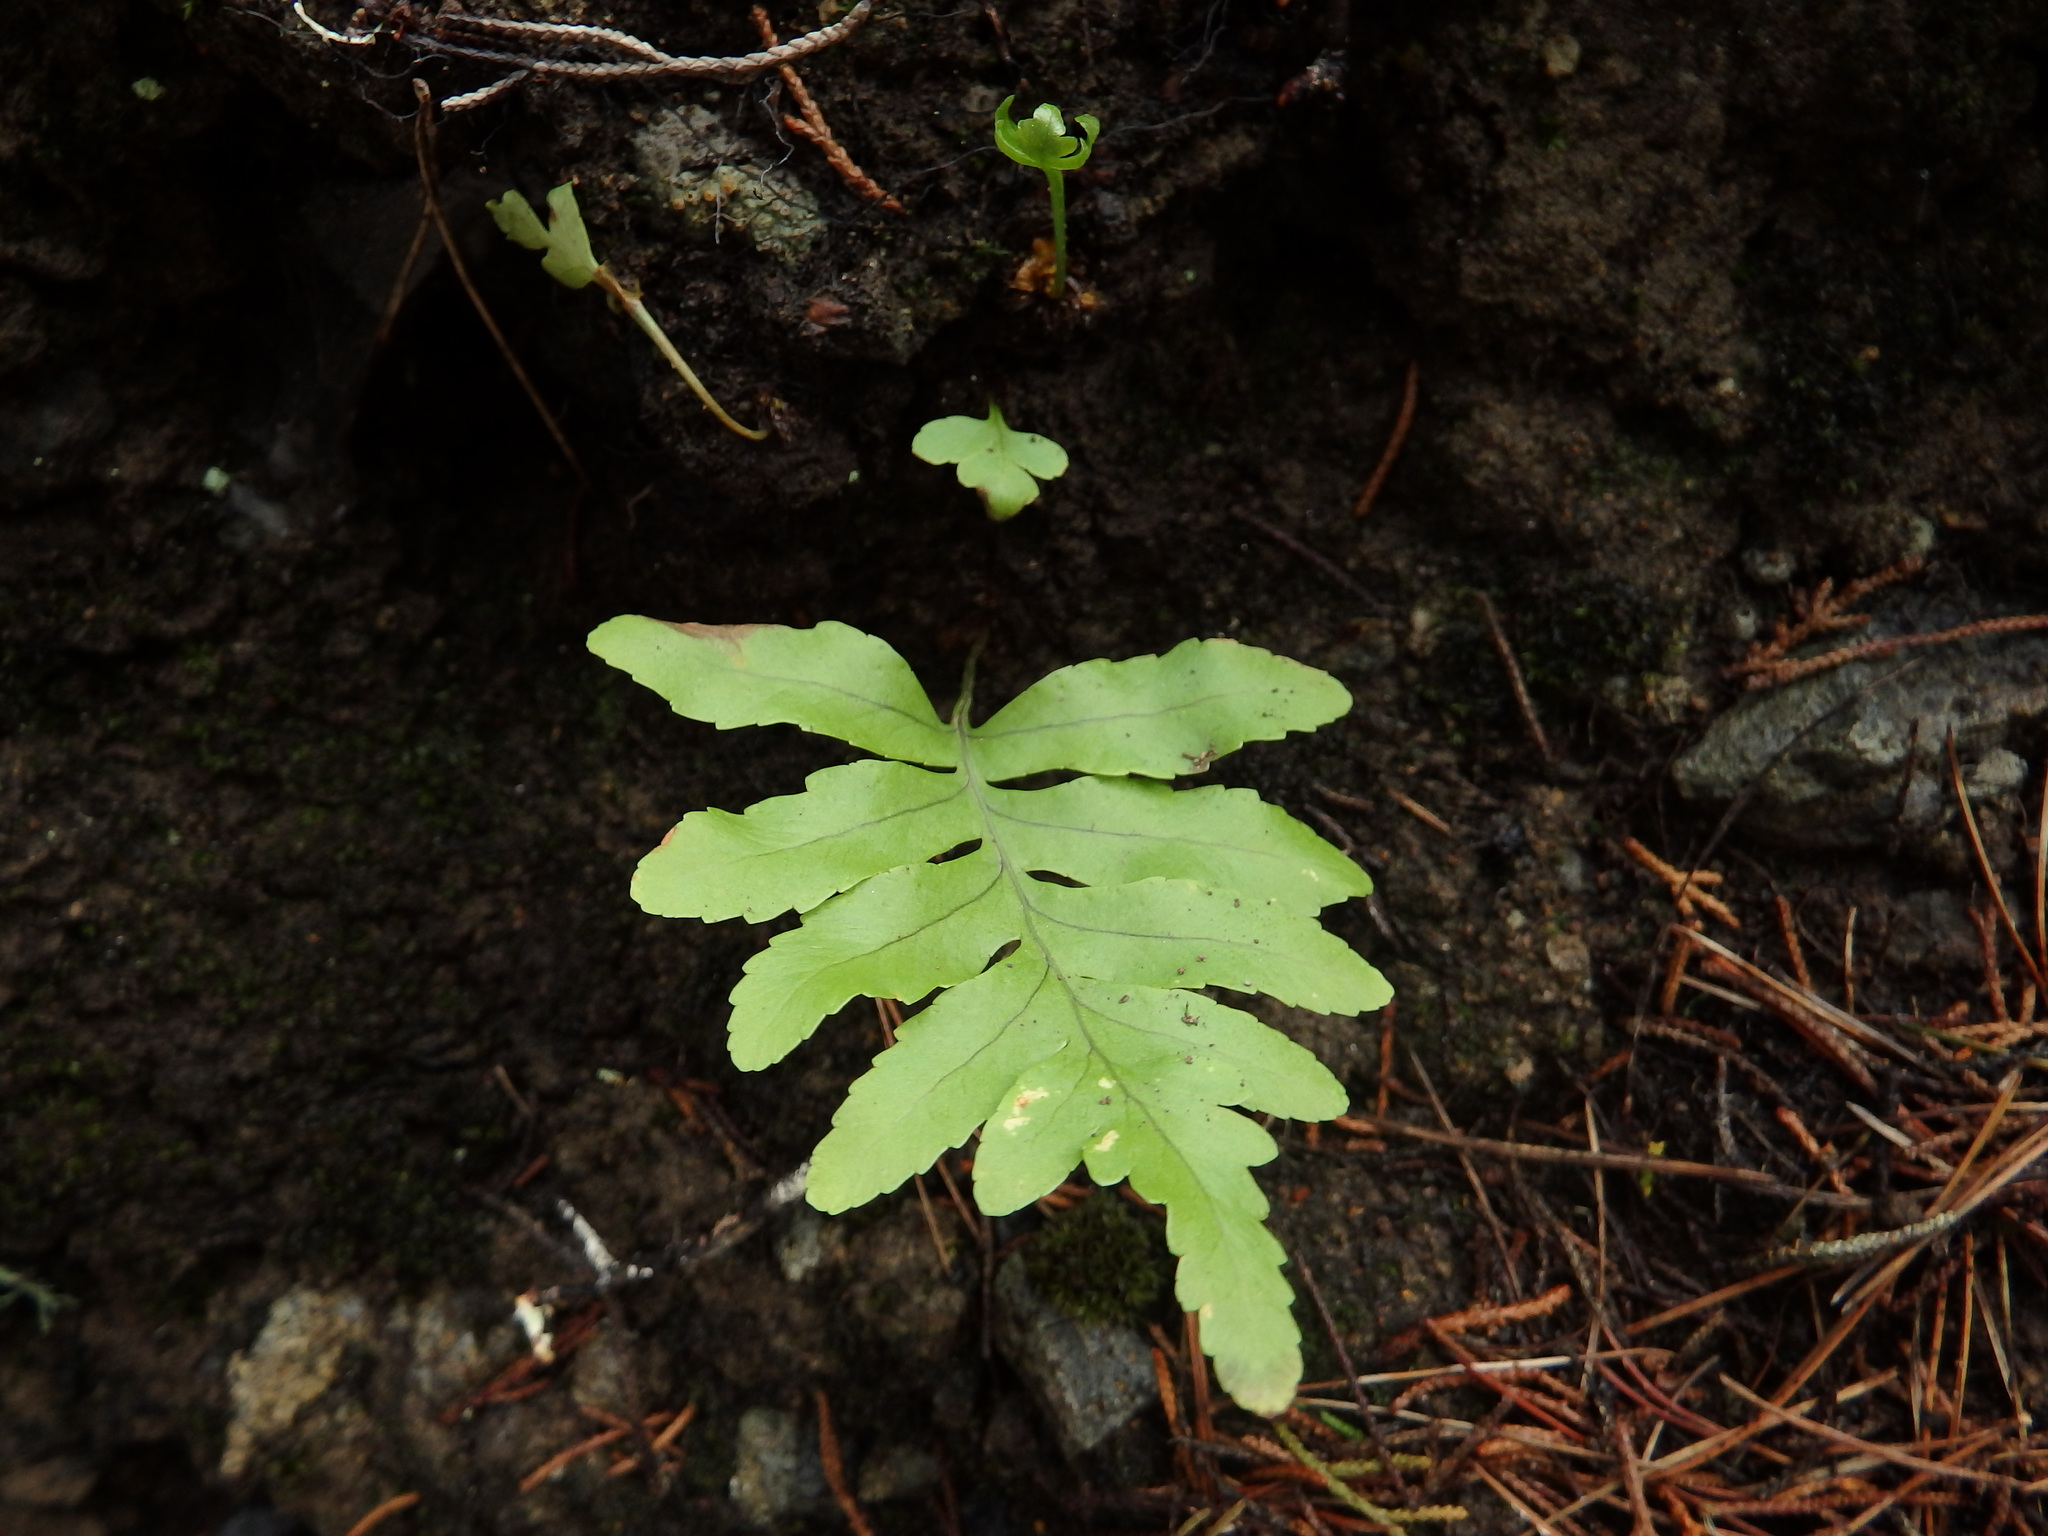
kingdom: Plantae
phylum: Tracheophyta
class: Polypodiopsida
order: Polypodiales
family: Polypodiaceae
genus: Polypodium
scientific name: Polypodium macaronesicum
